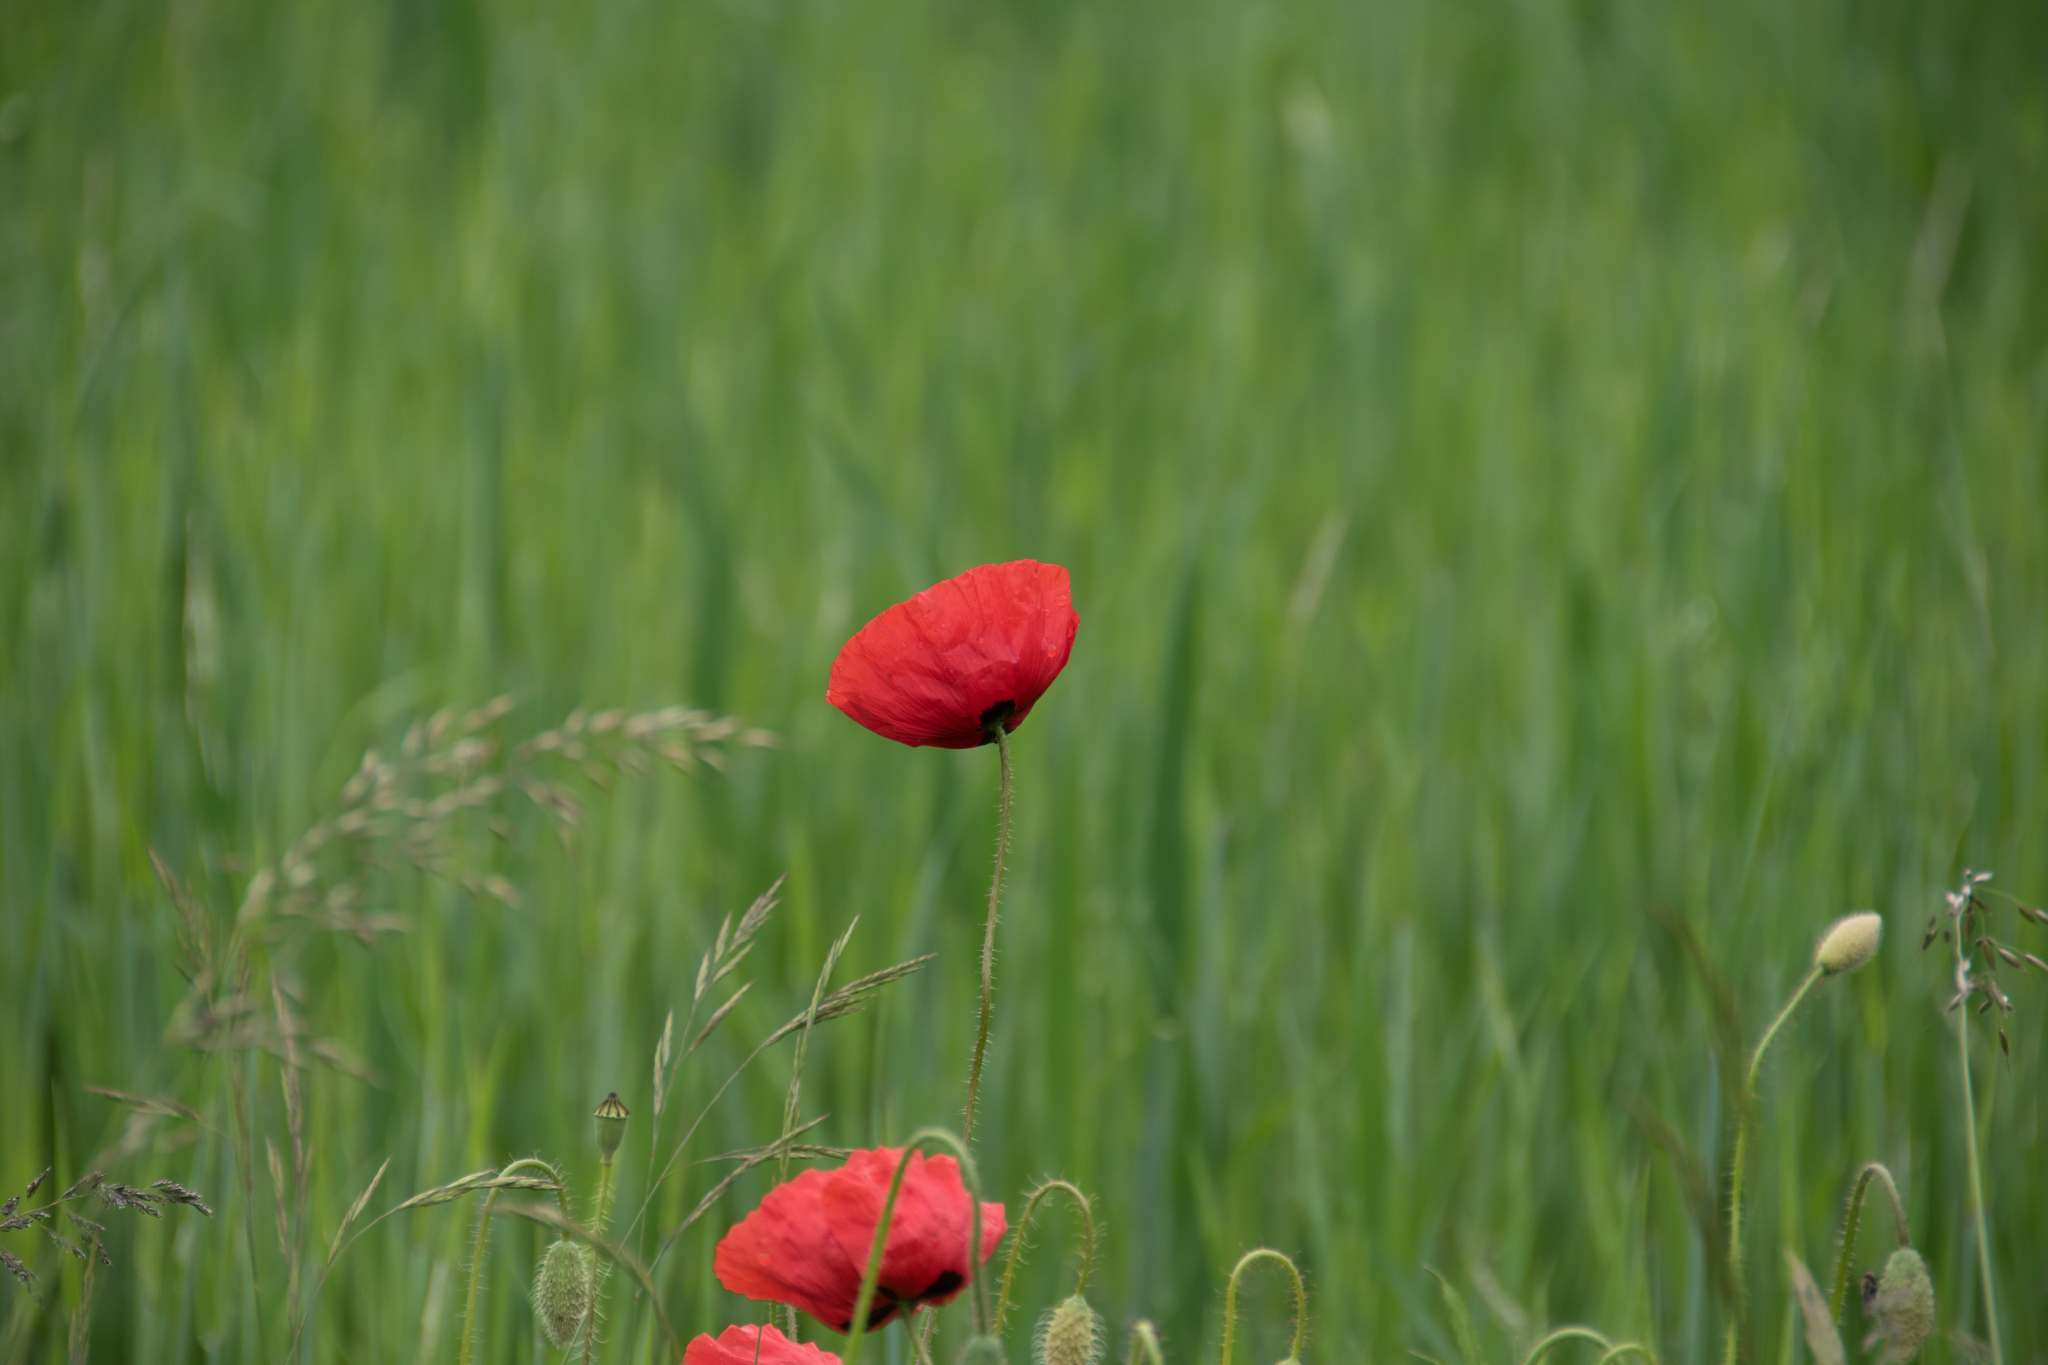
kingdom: Plantae
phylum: Tracheophyta
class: Magnoliopsida
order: Ranunculales
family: Papaveraceae
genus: Papaver
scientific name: Papaver rhoeas
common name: Corn poppy
